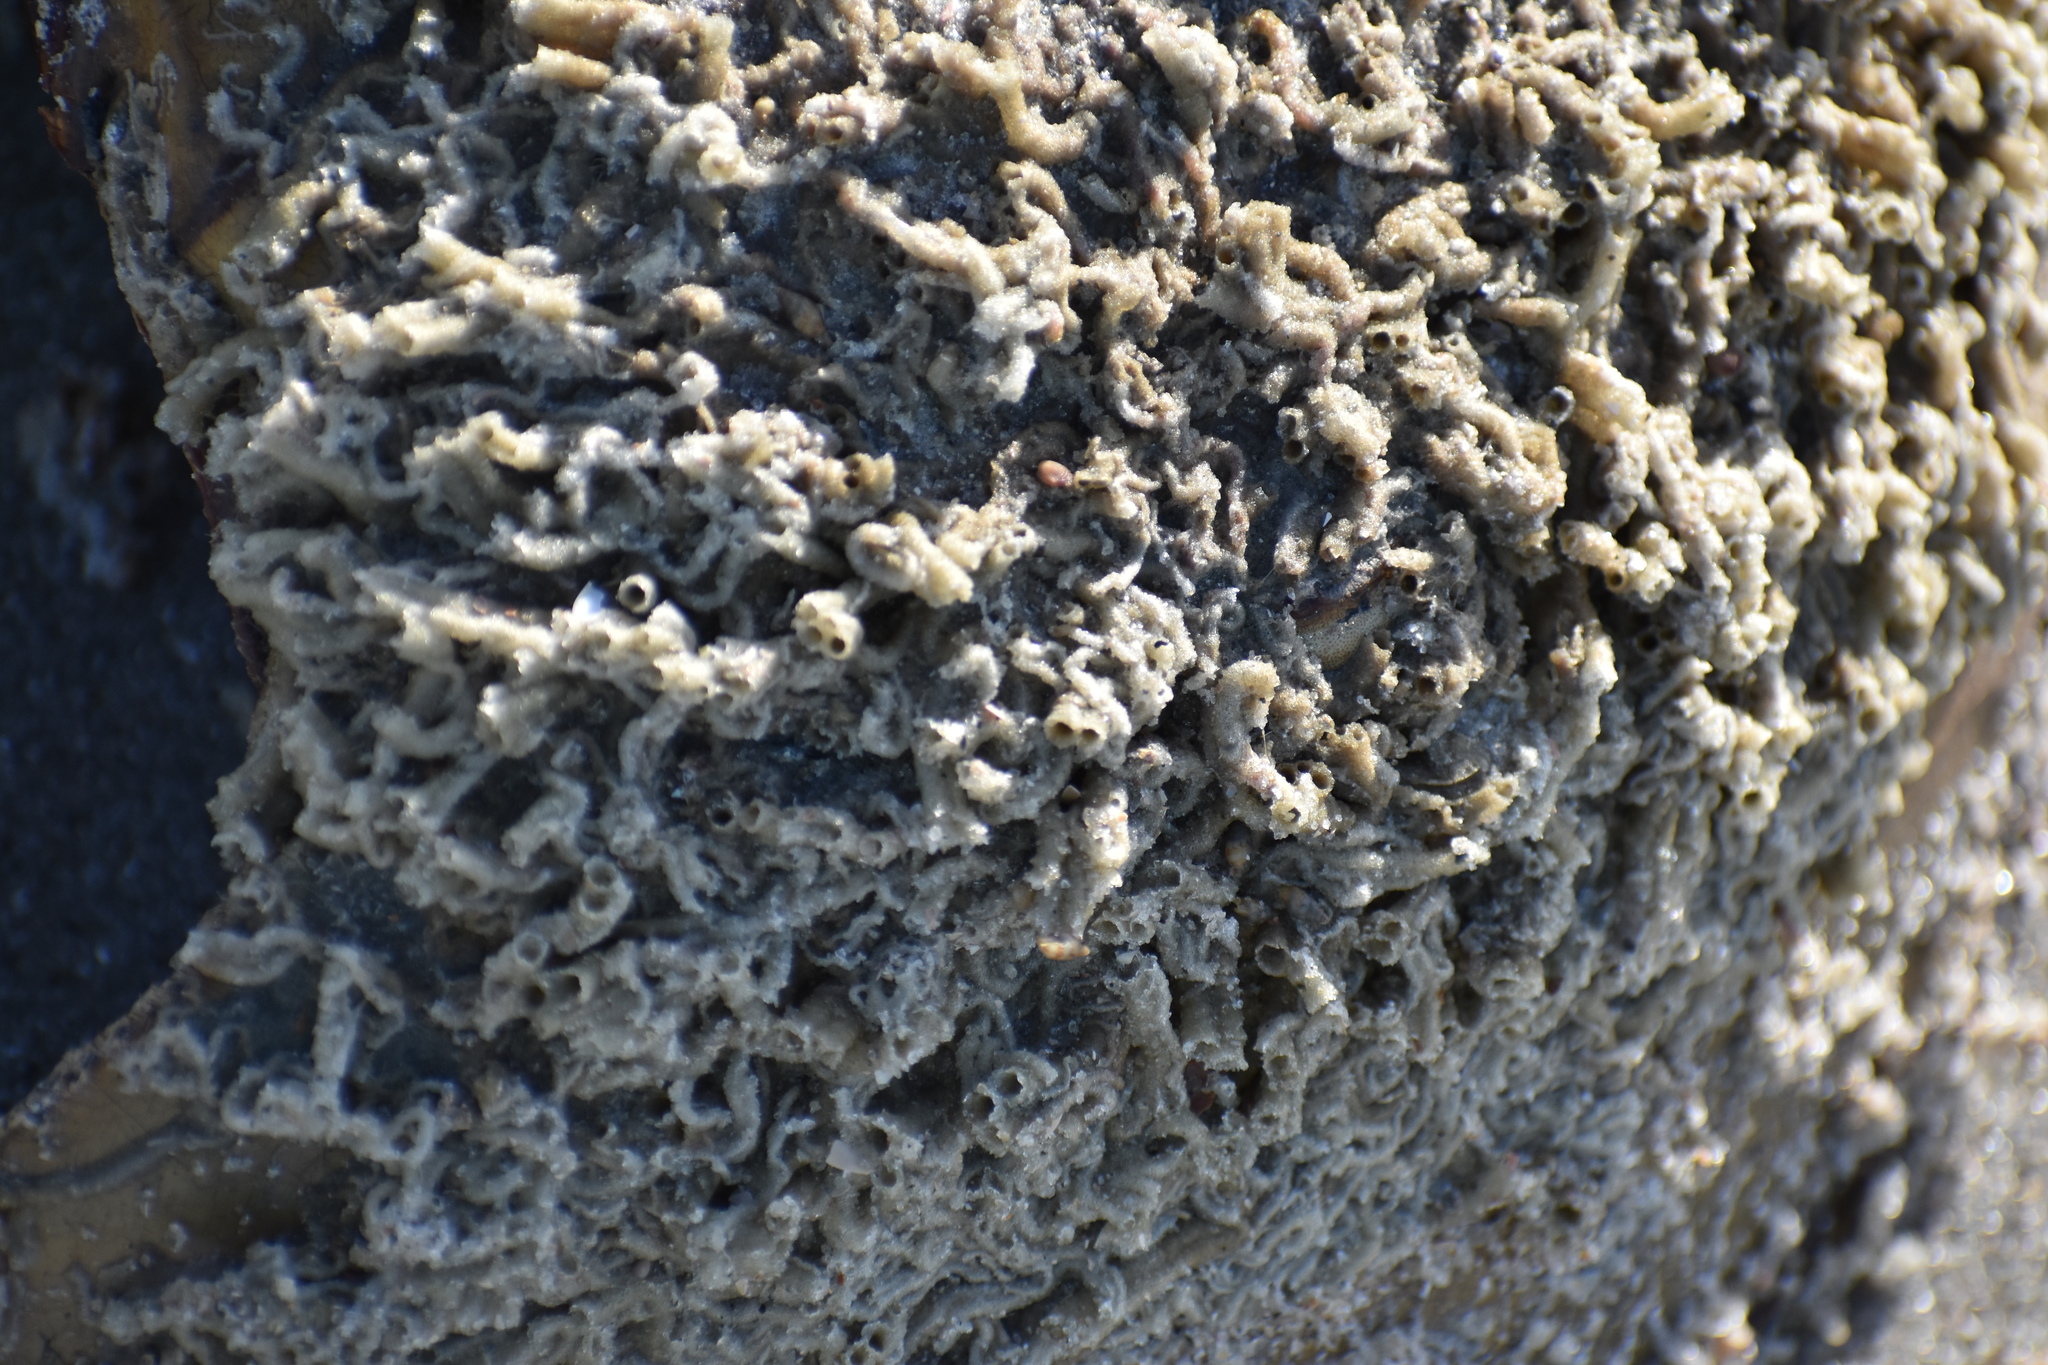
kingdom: Animalia
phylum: Annelida
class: Polychaeta
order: Sabellida
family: Sabellariidae
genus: Phragmatopoma
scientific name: Phragmatopoma caudata
